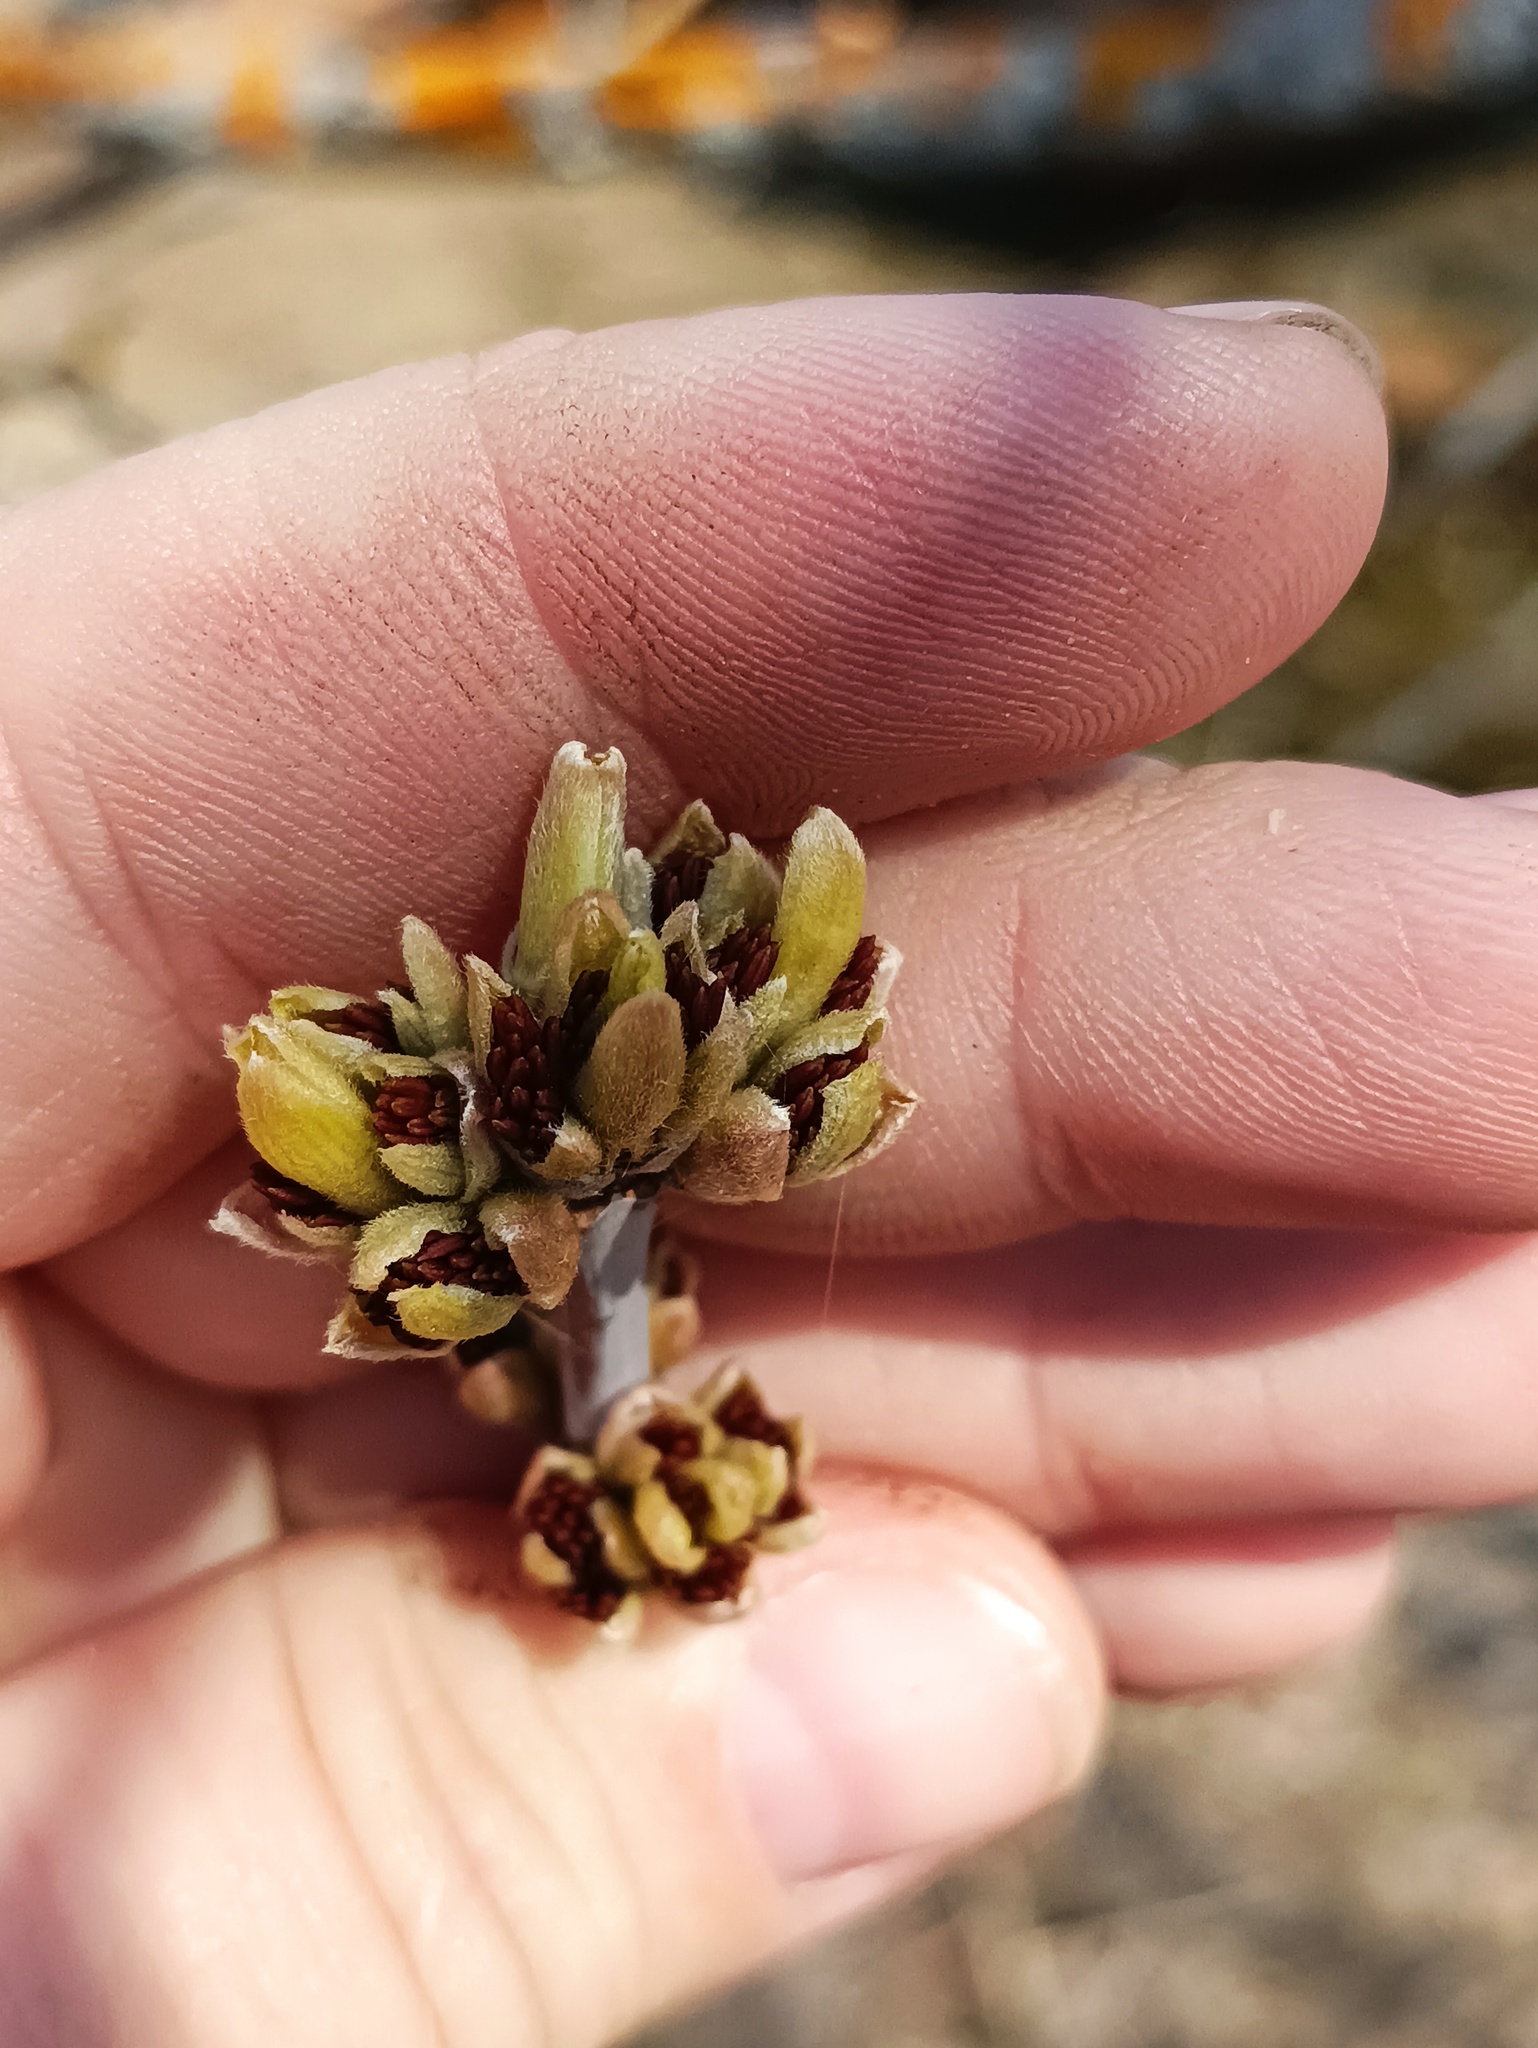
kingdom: Plantae
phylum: Tracheophyta
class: Magnoliopsida
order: Sapindales
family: Sapindaceae
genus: Acer
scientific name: Acer negundo
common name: Ashleaf maple
